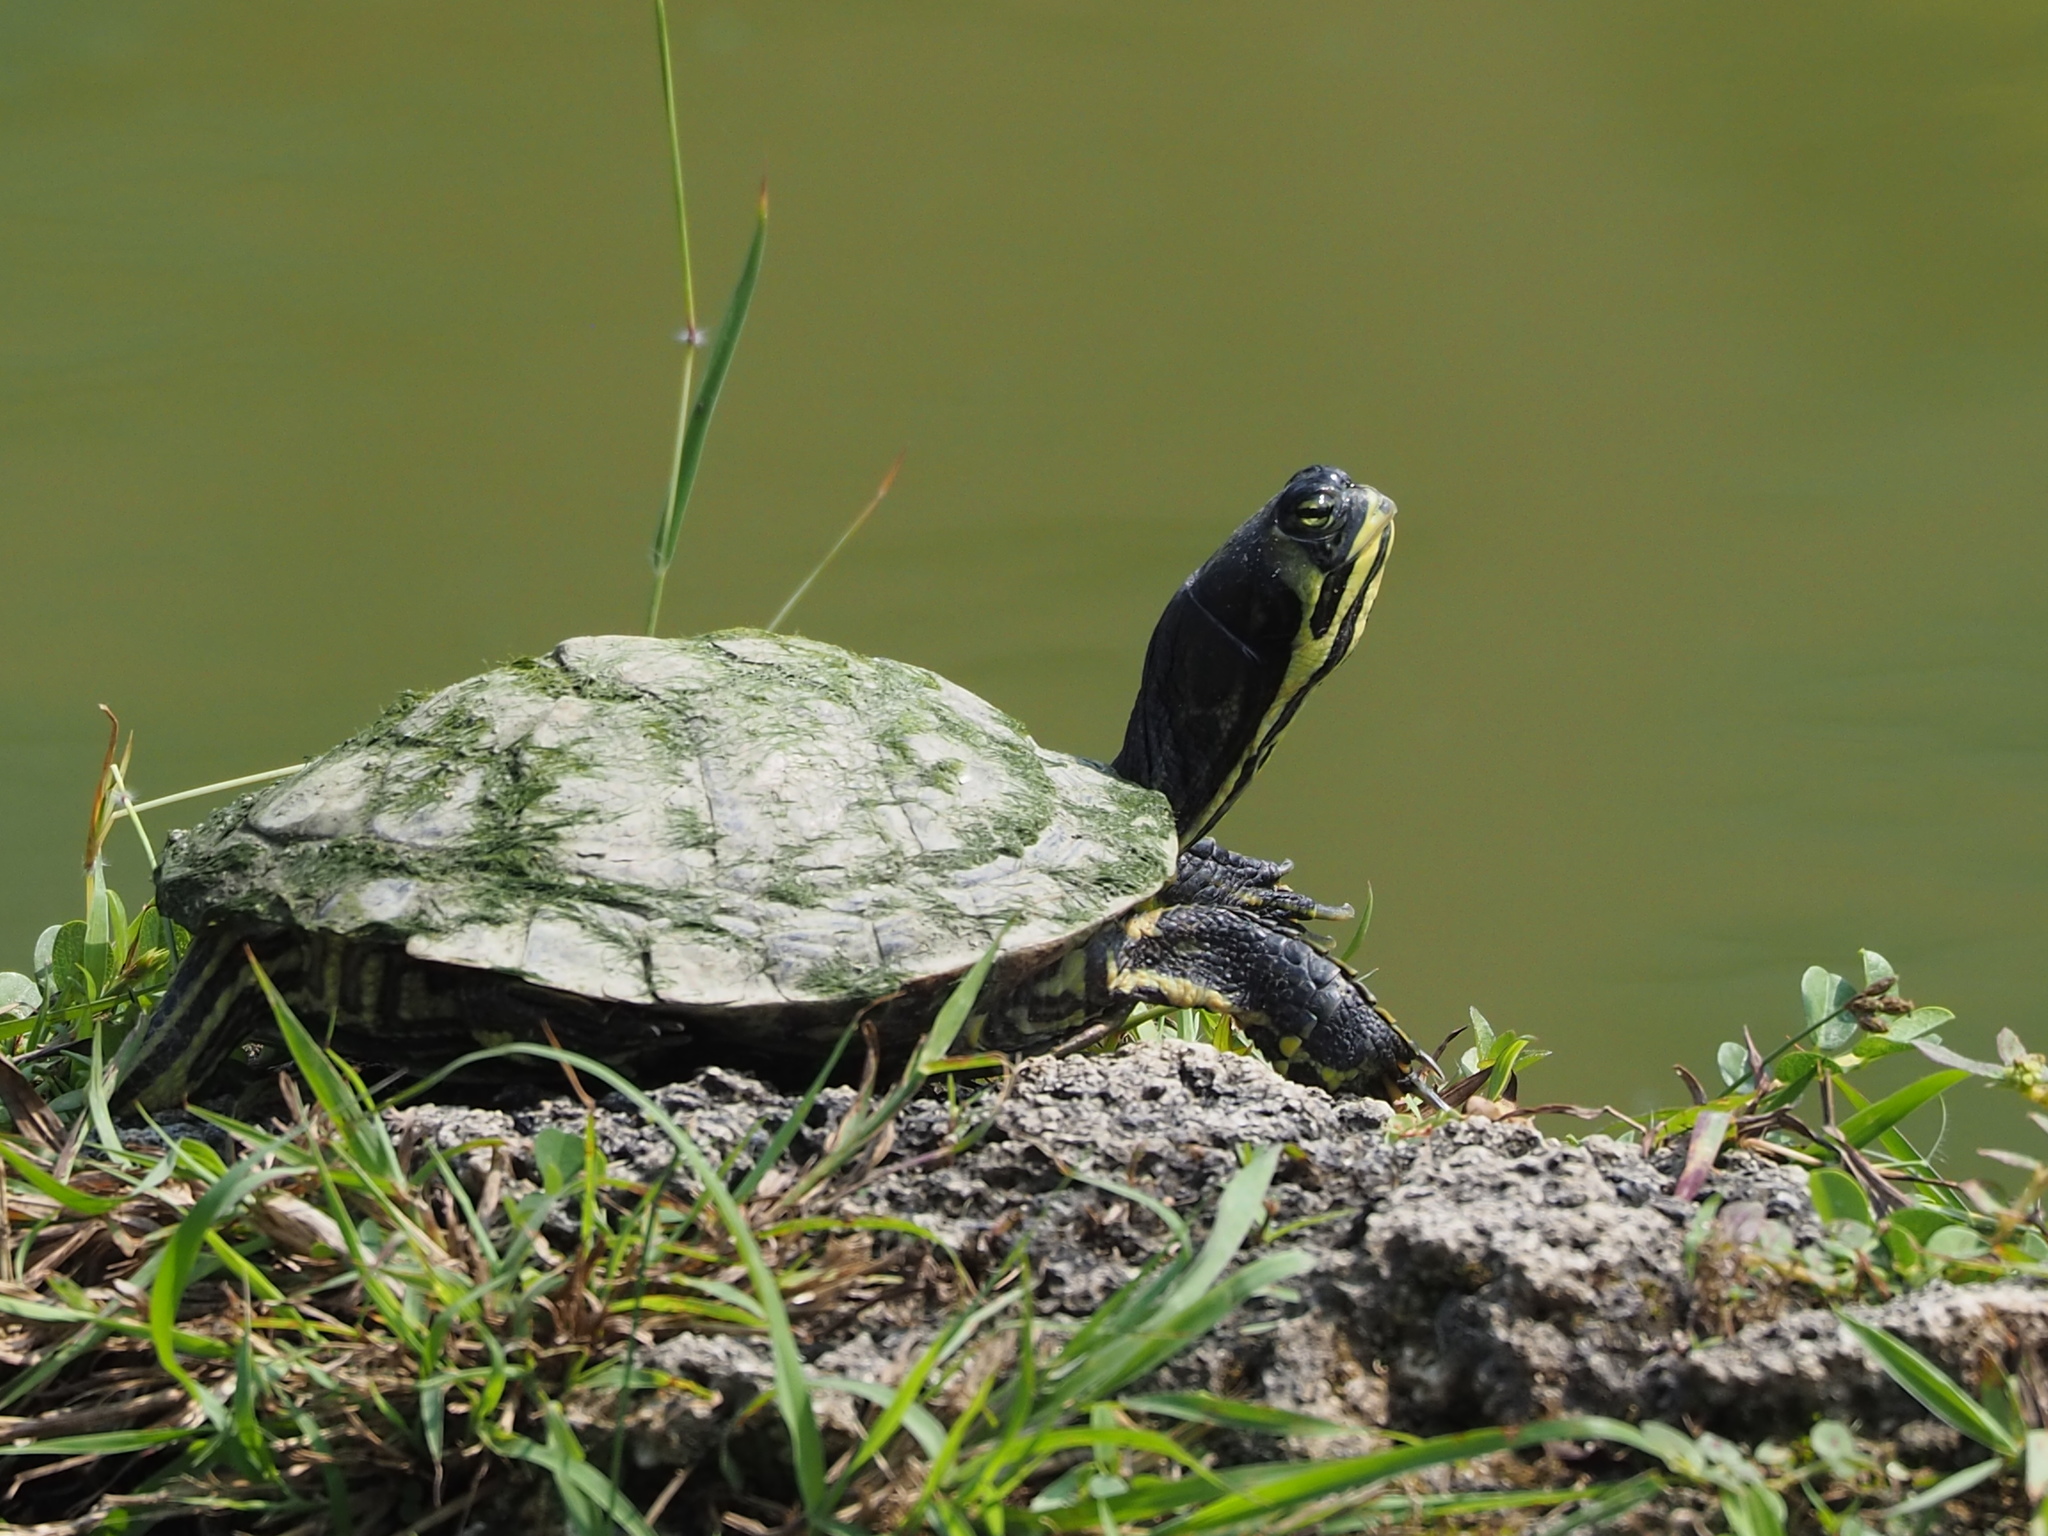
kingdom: Animalia
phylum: Chordata
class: Testudines
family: Emydidae
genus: Trachemys
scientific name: Trachemys scripta
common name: Slider
